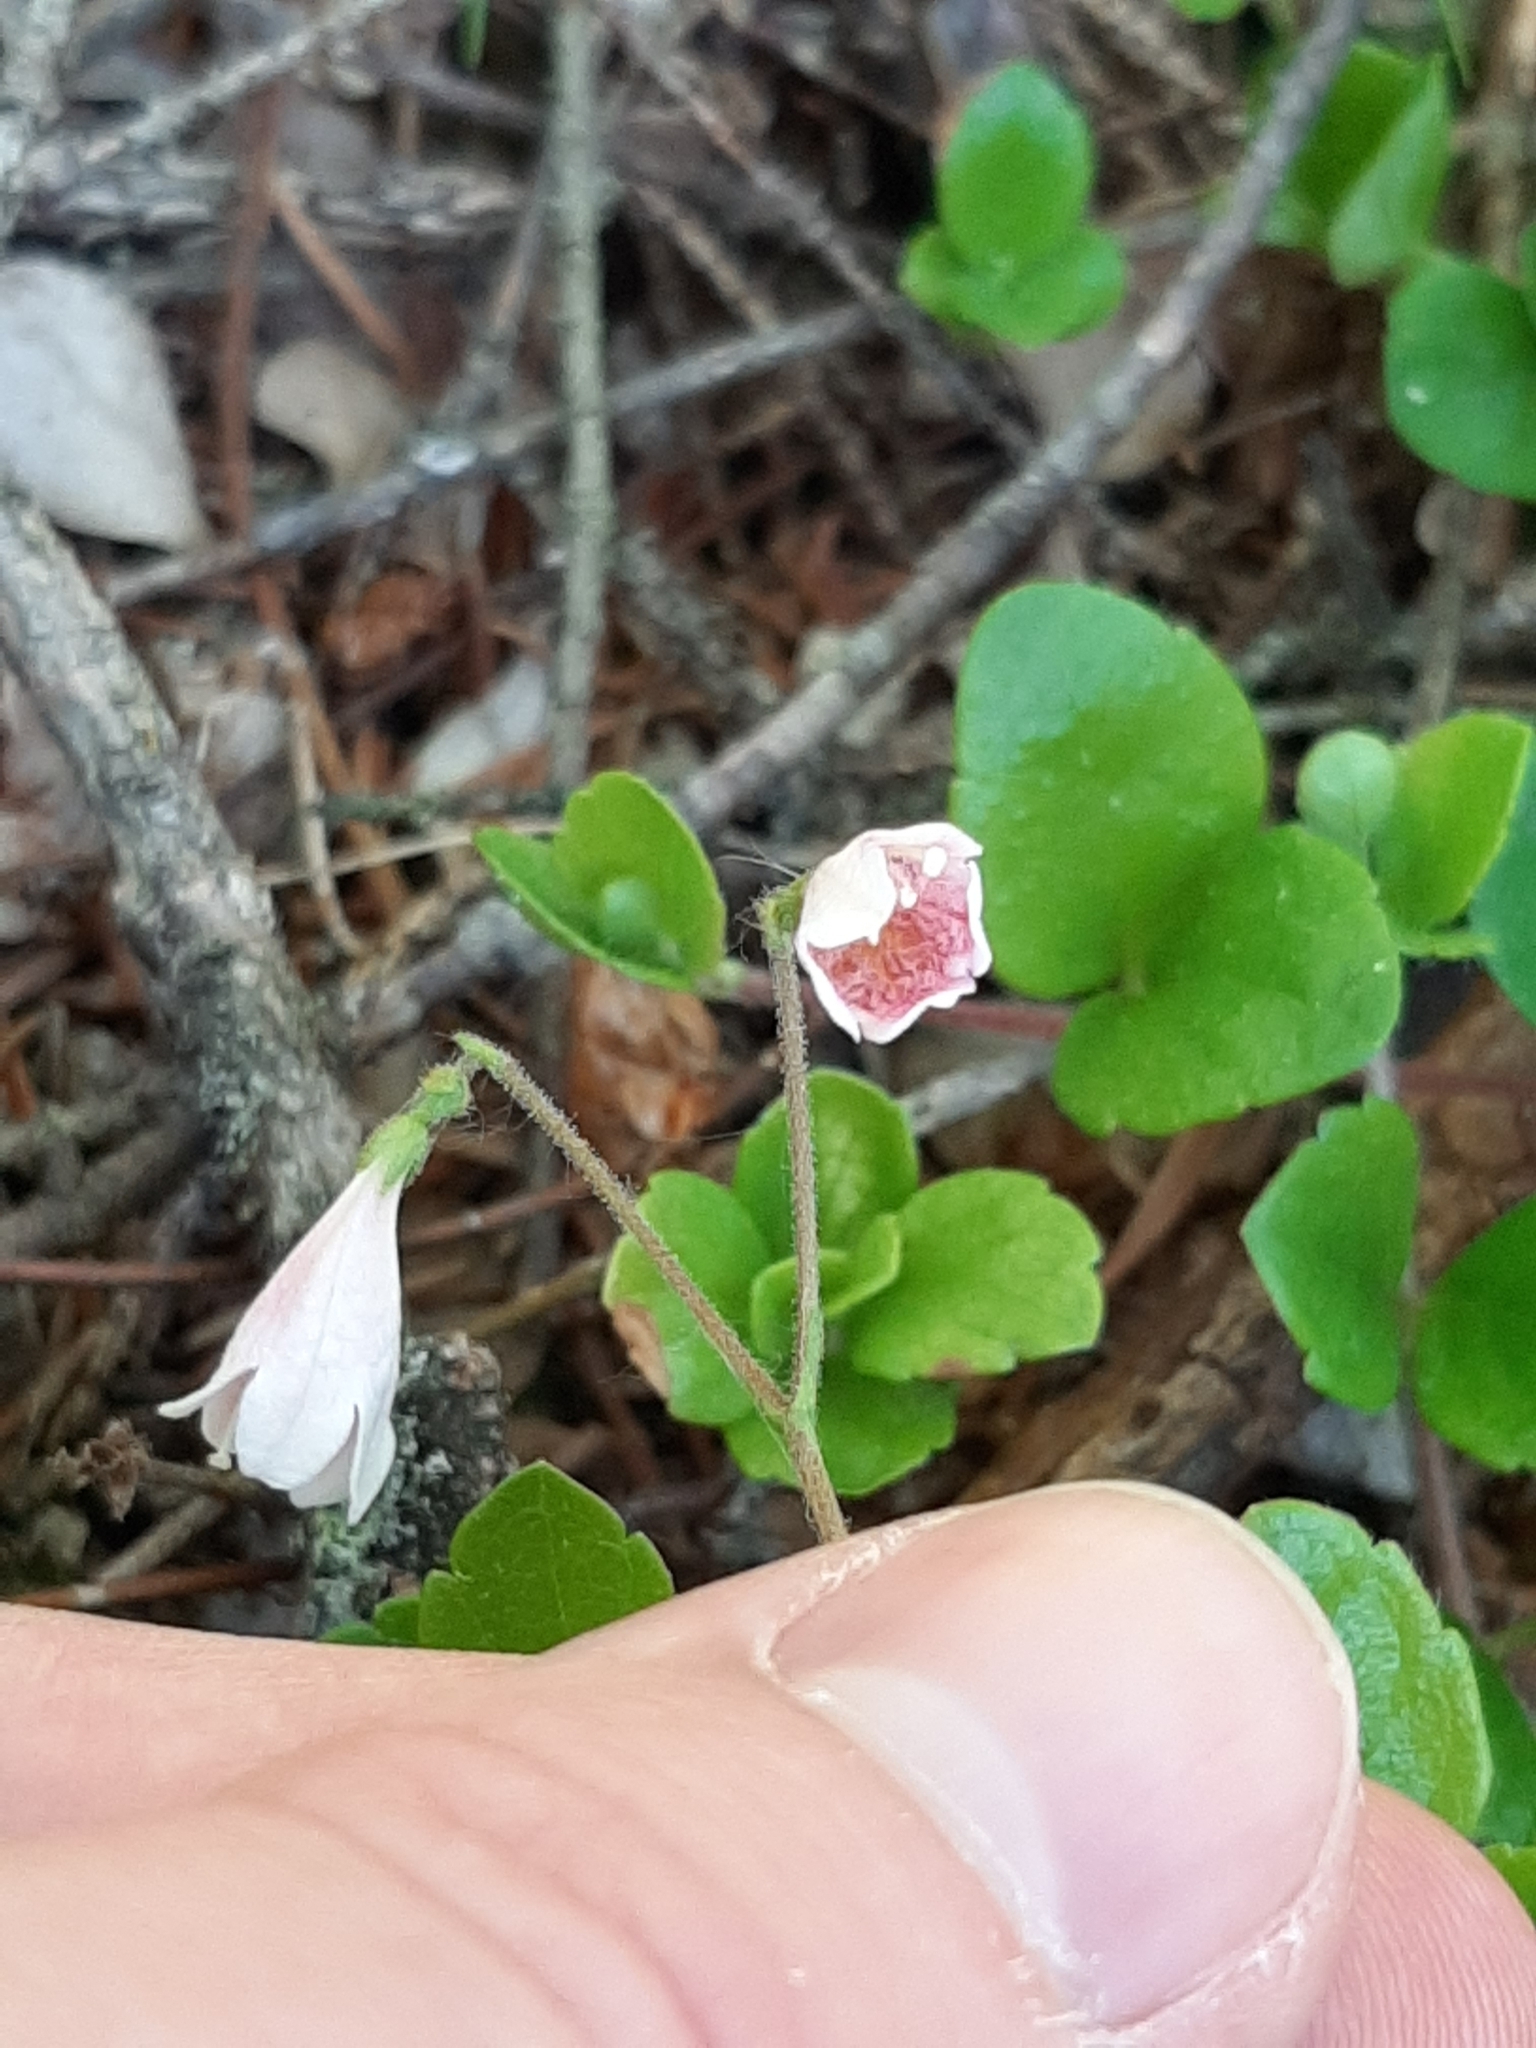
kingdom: Plantae
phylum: Tracheophyta
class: Magnoliopsida
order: Dipsacales
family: Caprifoliaceae
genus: Linnaea
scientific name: Linnaea borealis
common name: Twinflower
